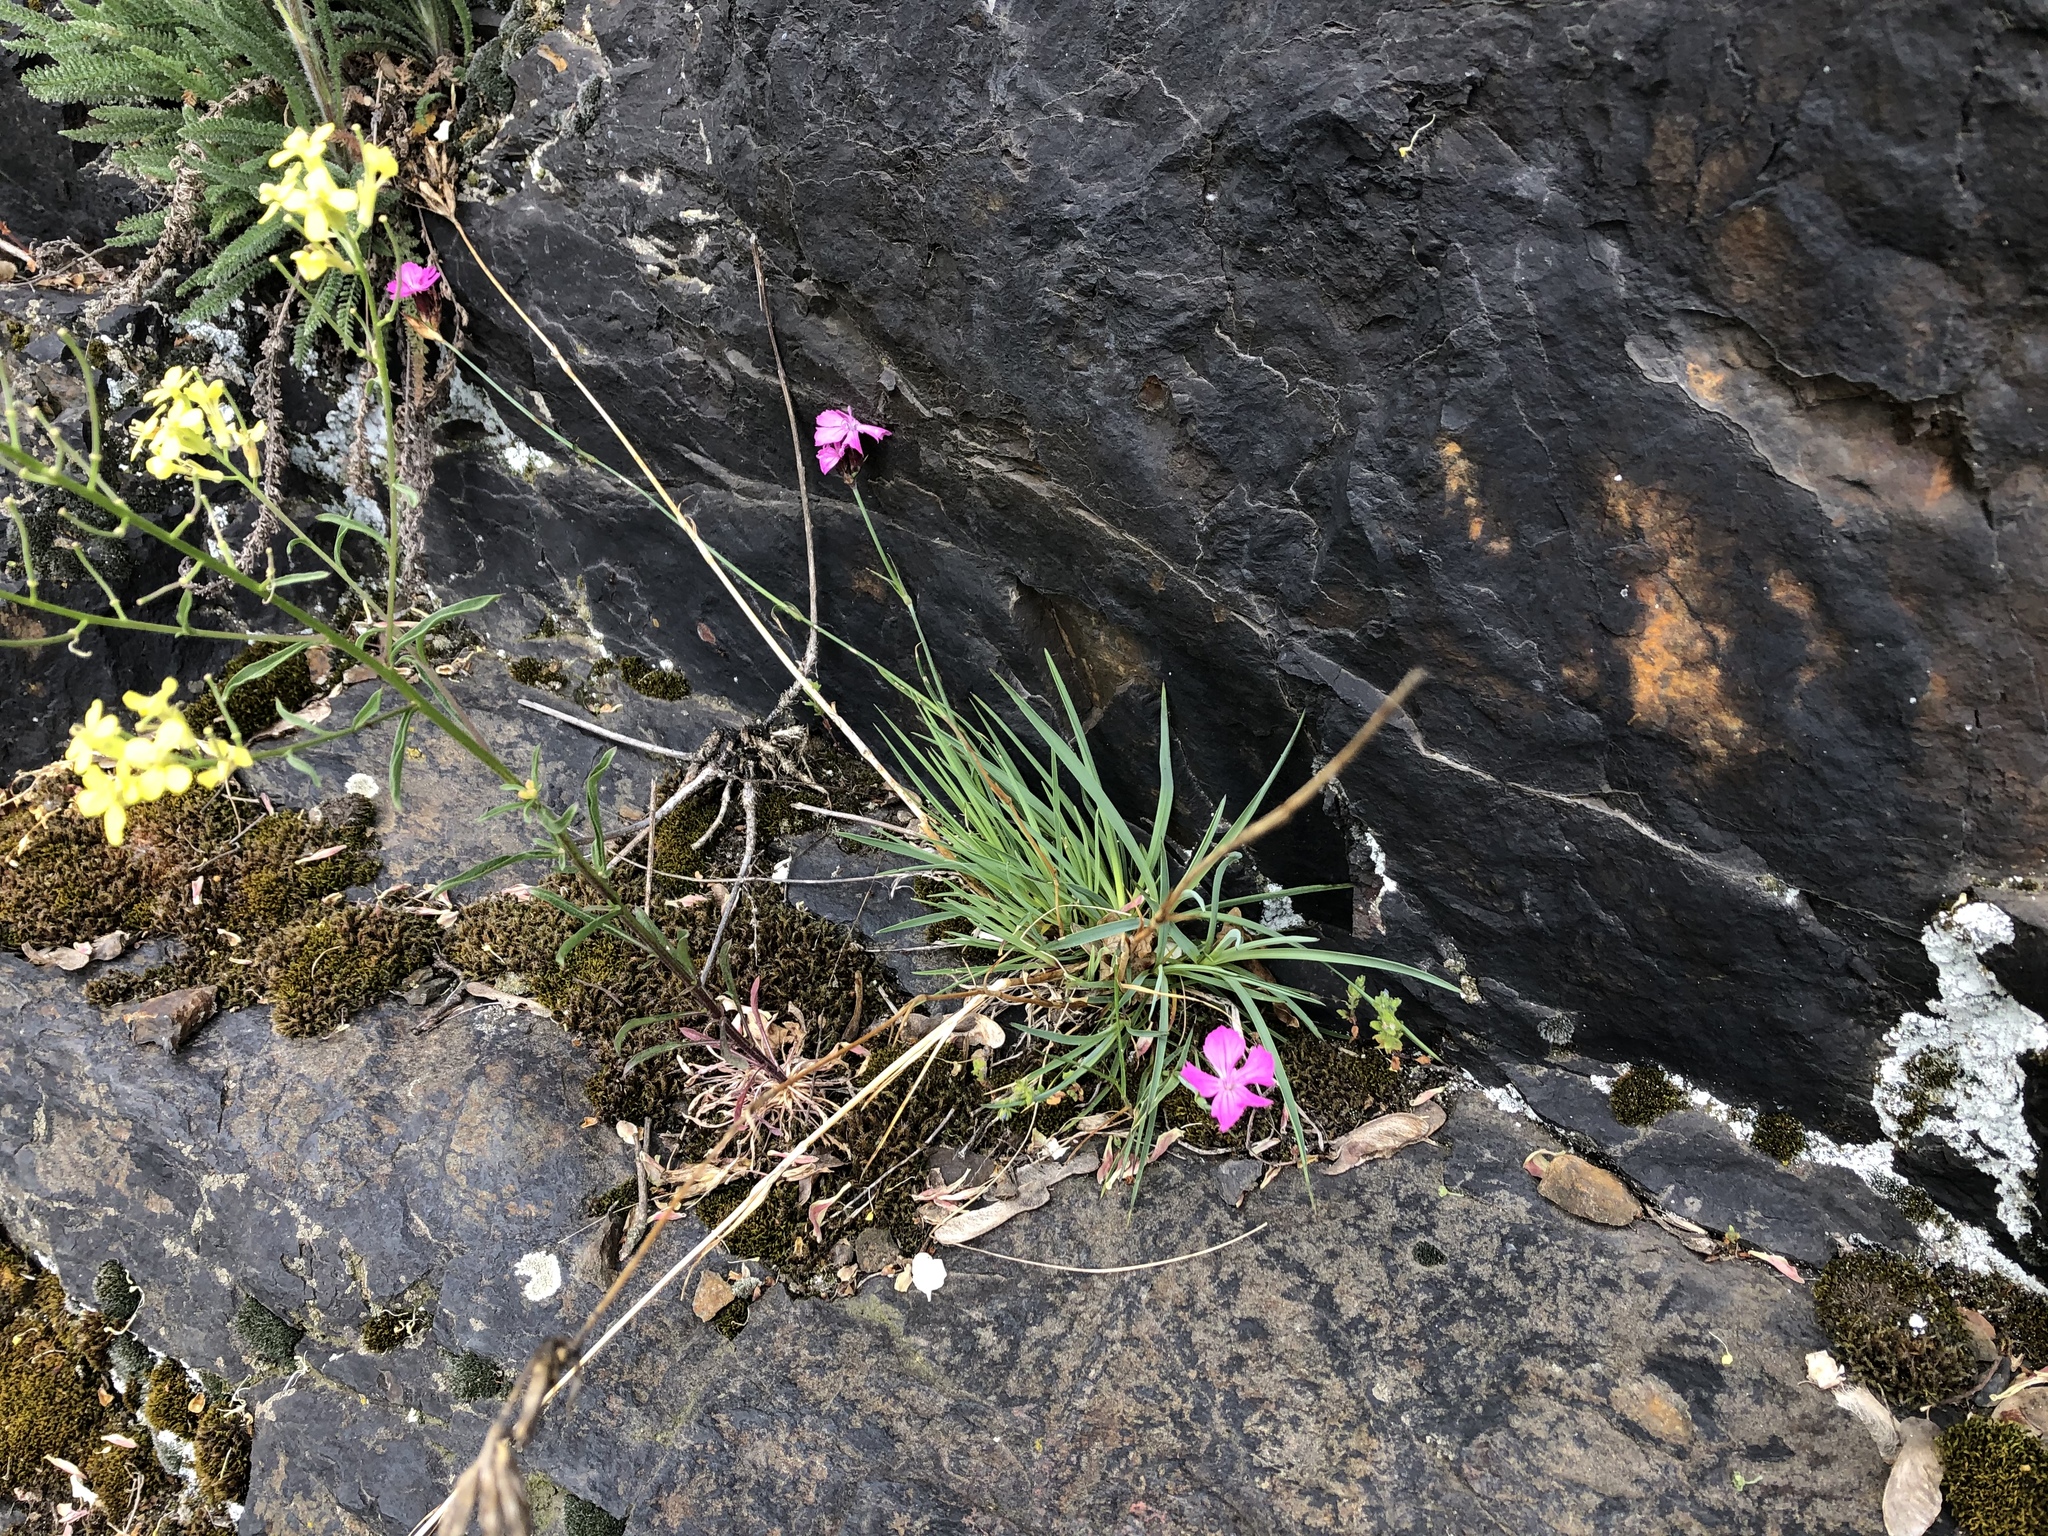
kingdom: Plantae
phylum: Tracheophyta
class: Magnoliopsida
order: Caryophyllales
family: Caryophyllaceae
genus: Dianthus
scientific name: Dianthus carthusianorum
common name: Carthusian pink
